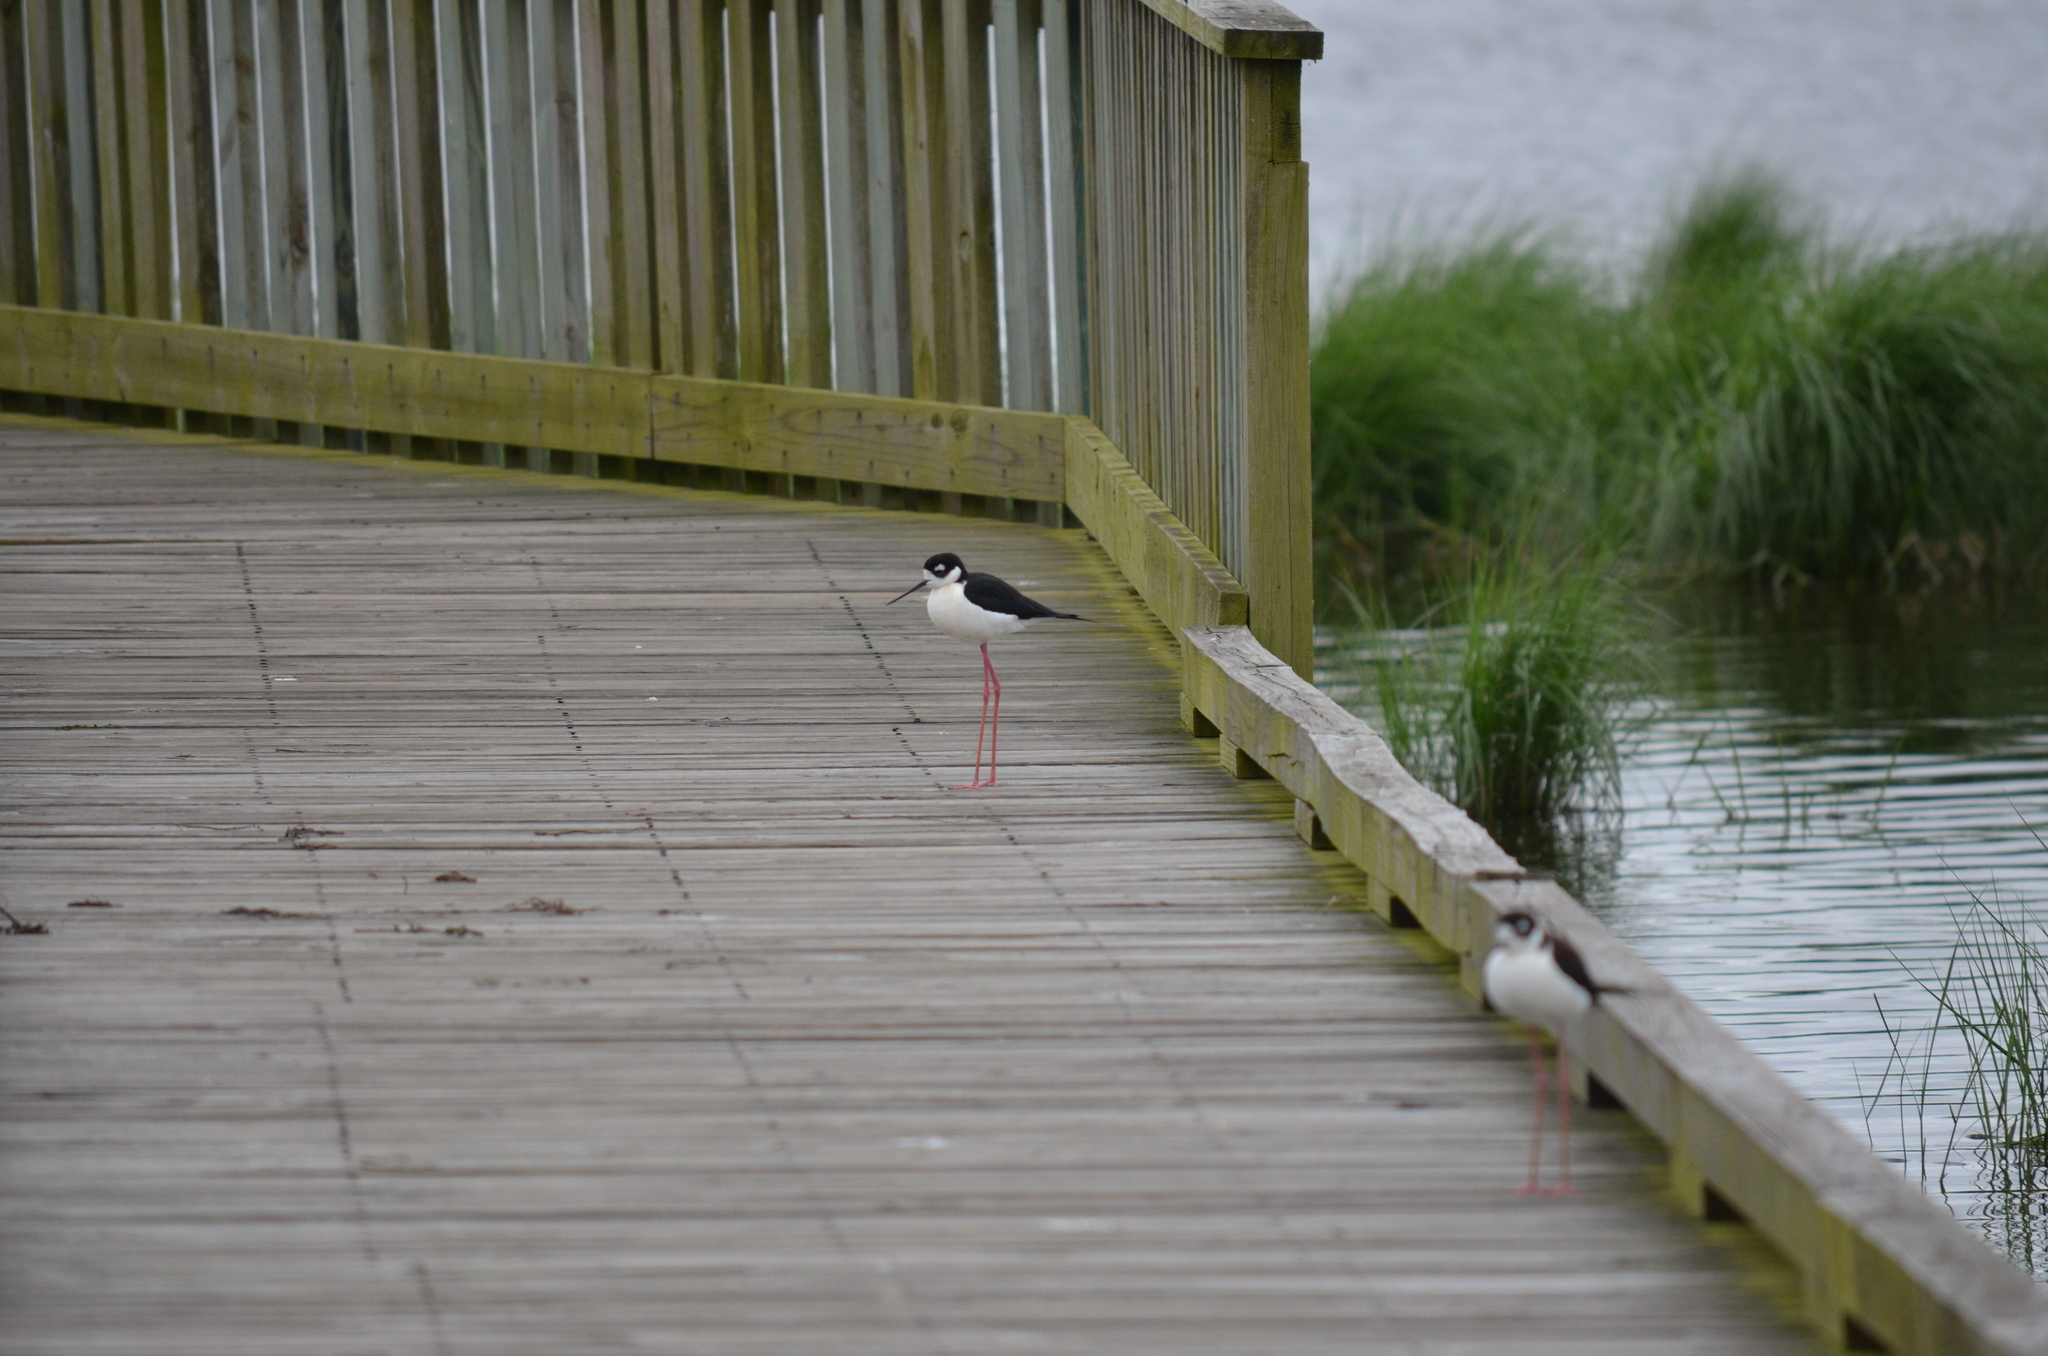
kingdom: Animalia
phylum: Chordata
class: Aves
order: Charadriiformes
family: Recurvirostridae
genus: Himantopus
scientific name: Himantopus mexicanus
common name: Black-necked stilt
